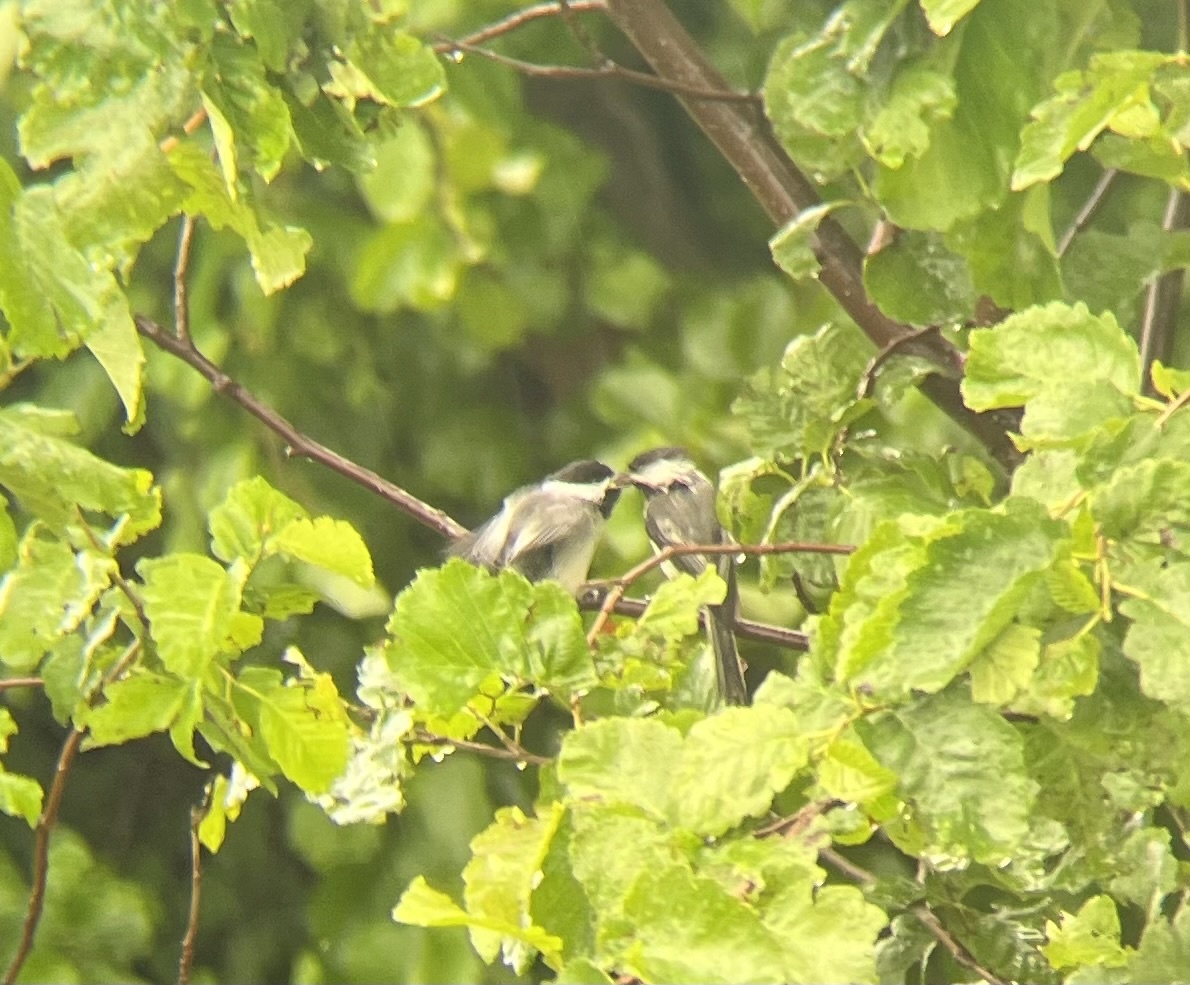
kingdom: Animalia
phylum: Chordata
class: Aves
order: Passeriformes
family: Paridae
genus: Poecile
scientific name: Poecile atricapillus
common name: Black-capped chickadee
